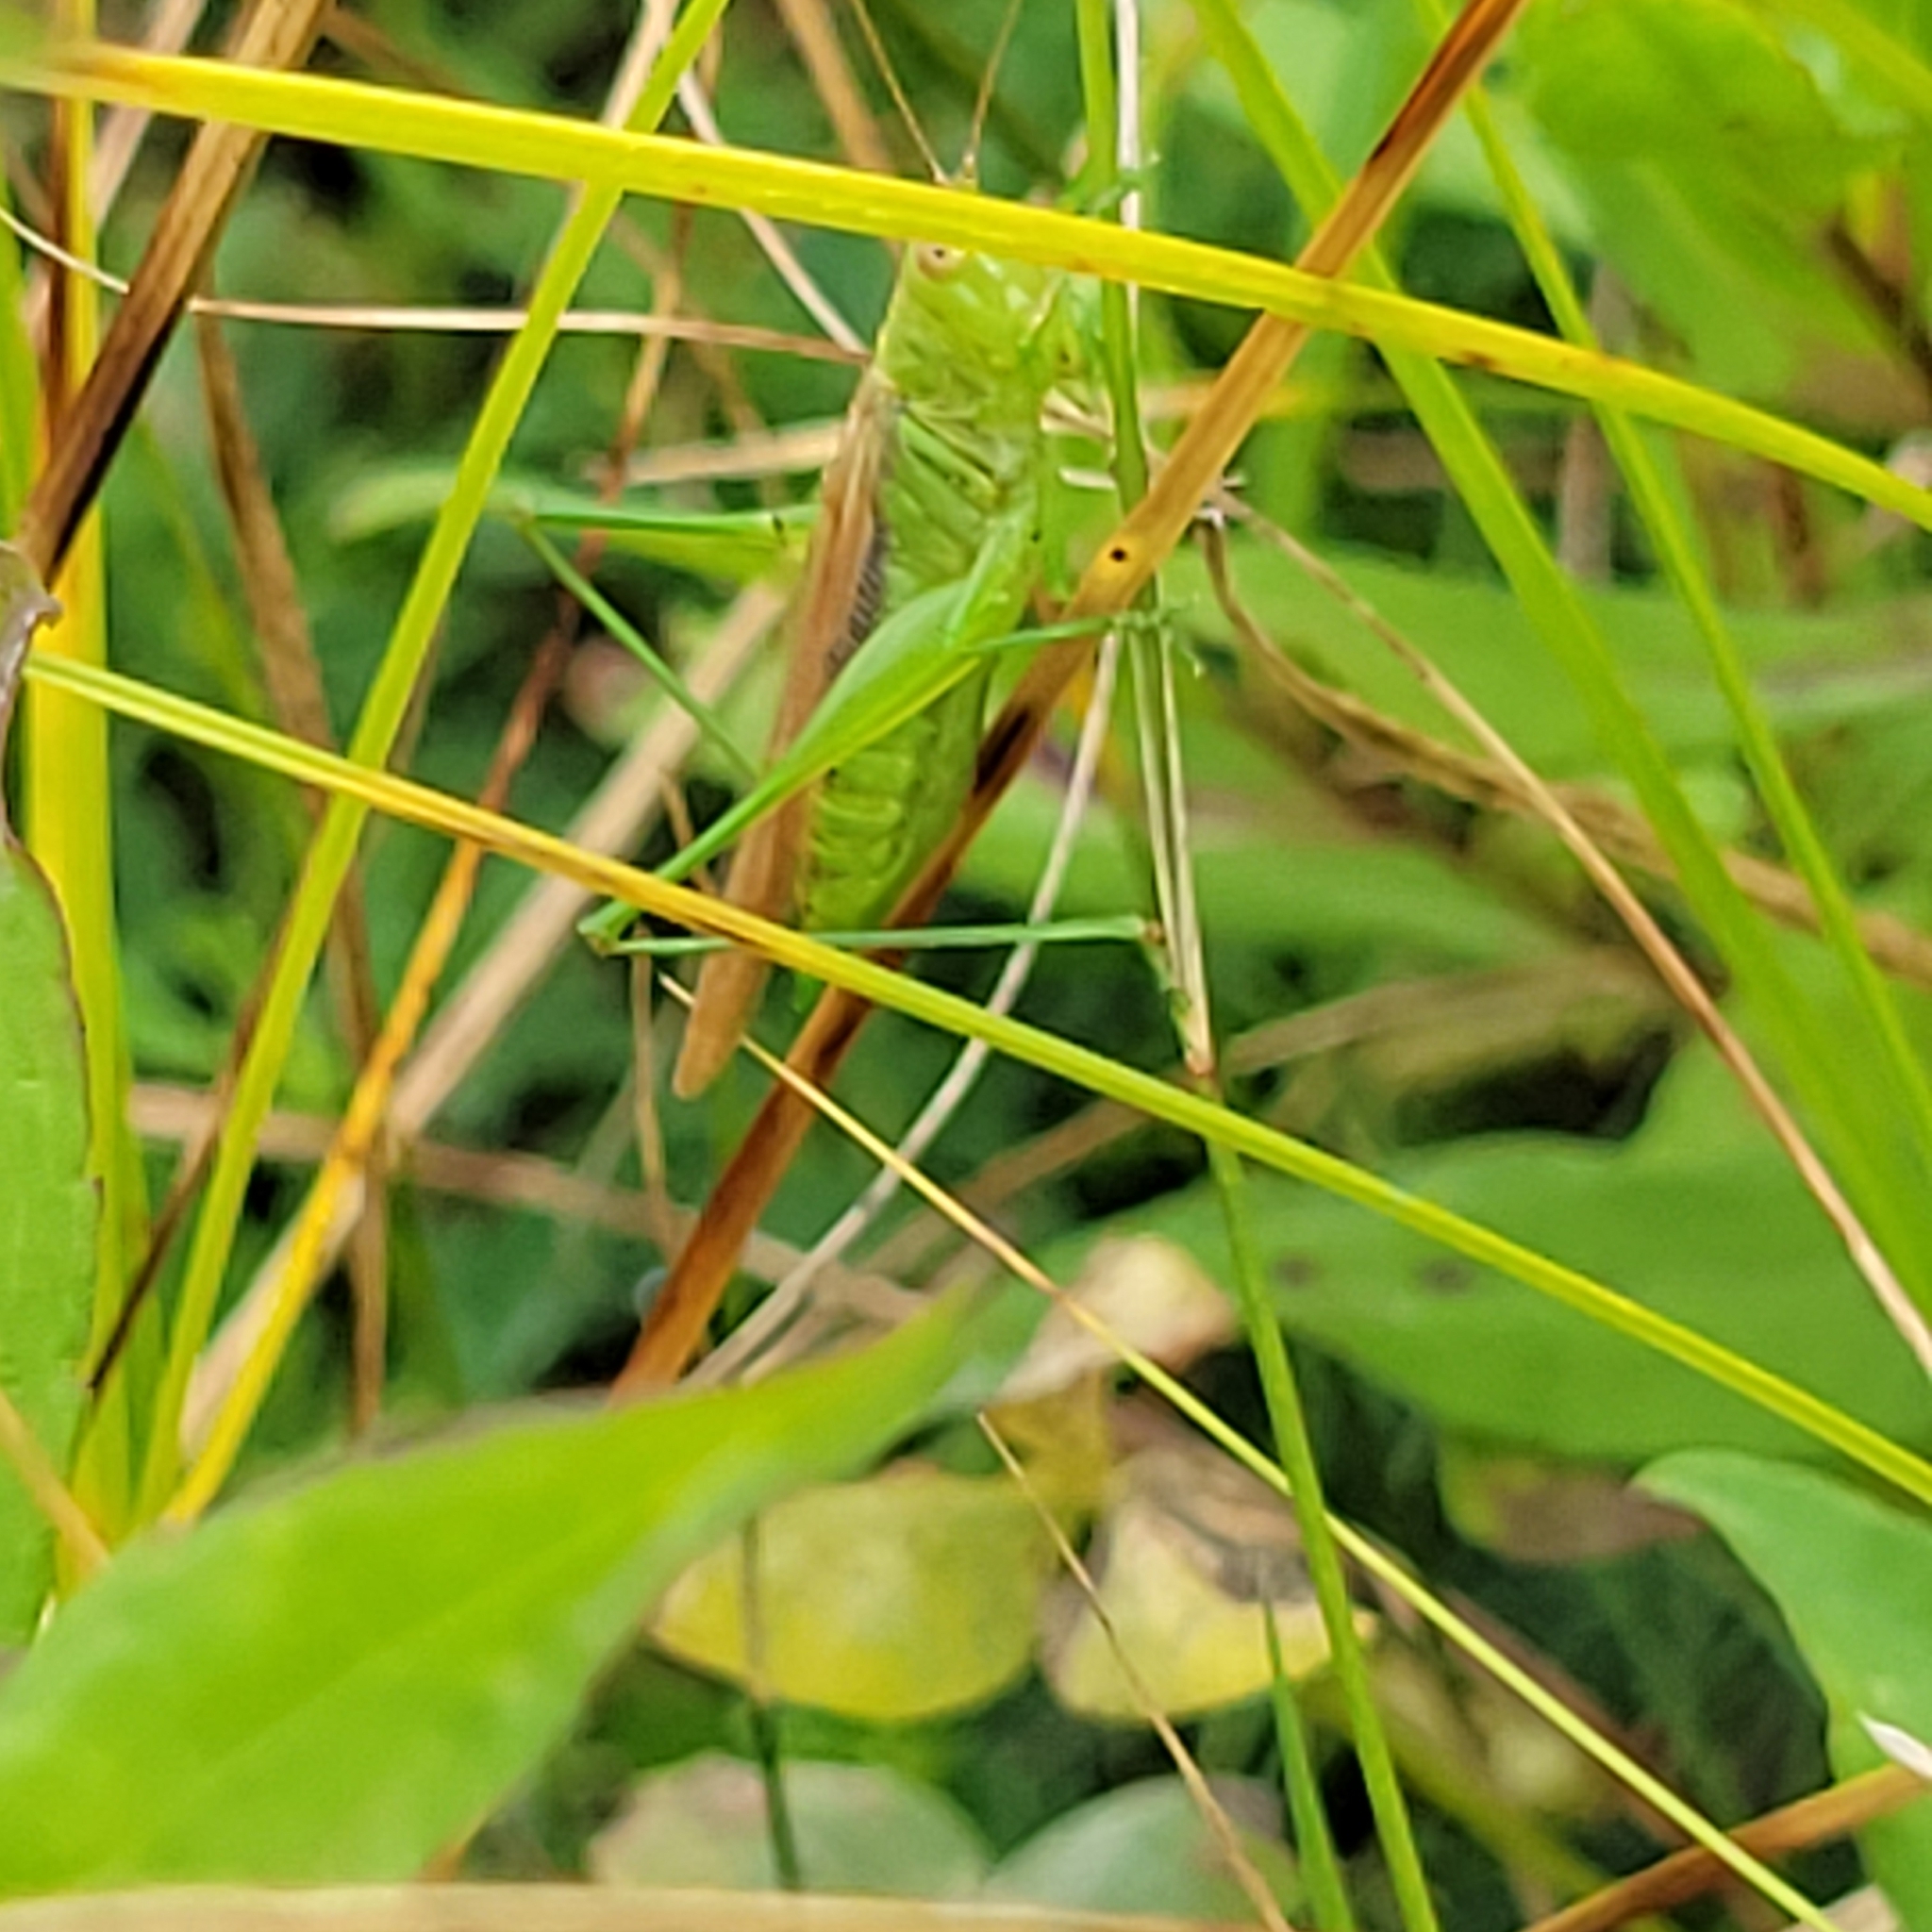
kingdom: Animalia
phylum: Arthropoda
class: Insecta
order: Orthoptera
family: Tettigoniidae
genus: Conocephalus
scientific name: Conocephalus fasciatus
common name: Slender meadow katydid
